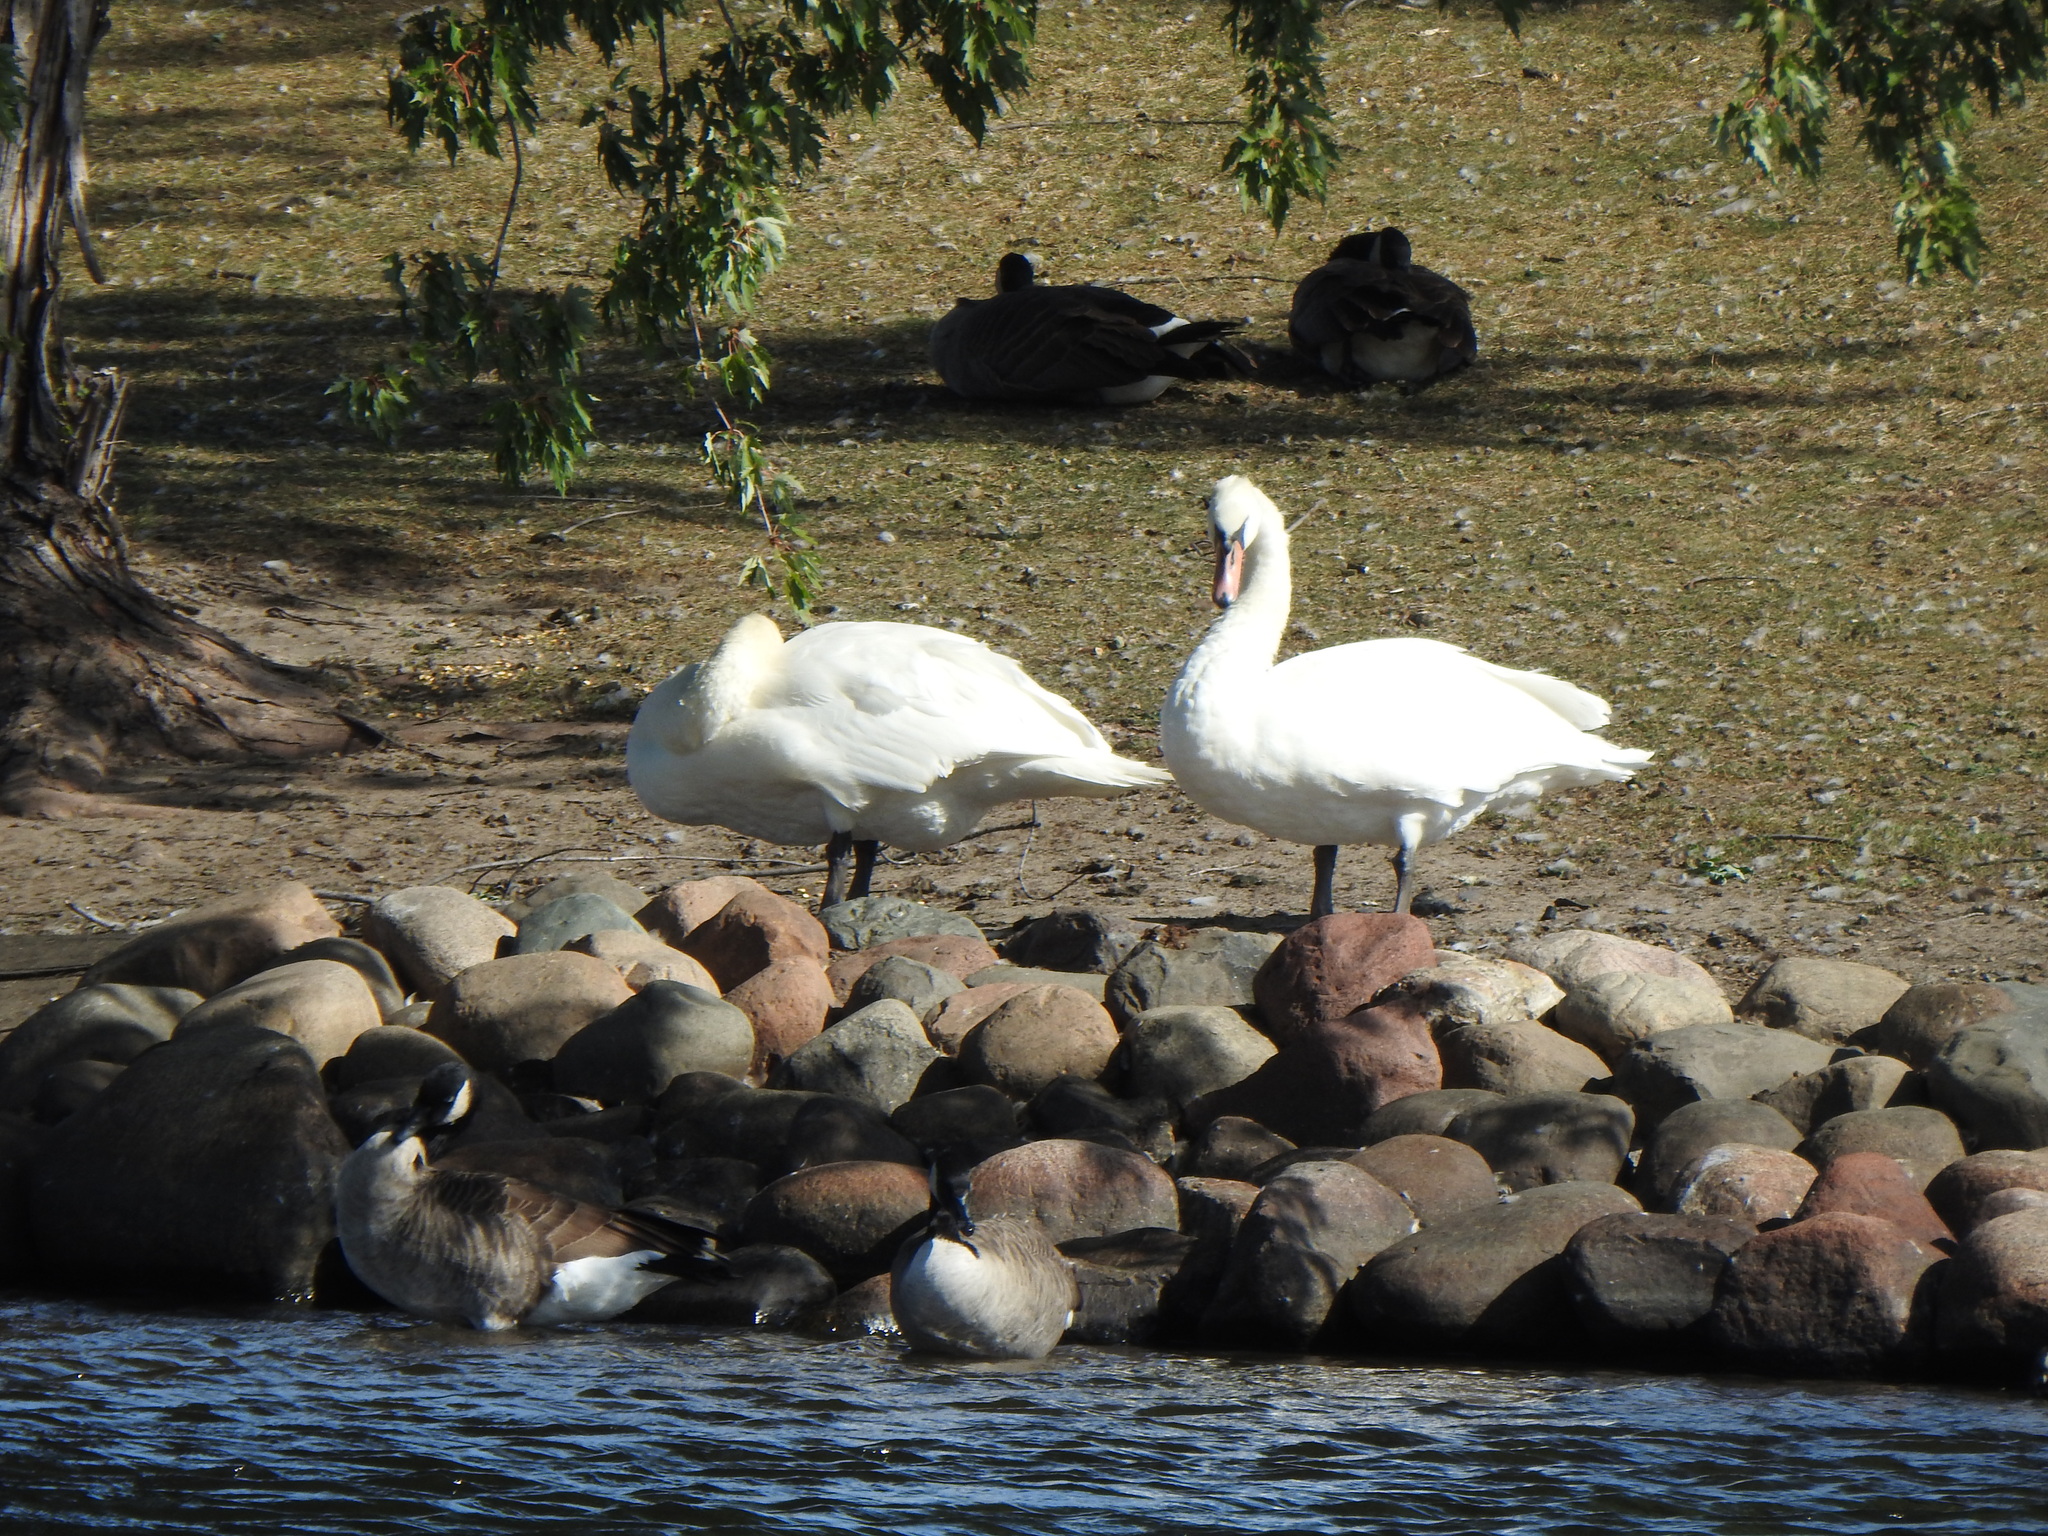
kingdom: Animalia
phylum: Chordata
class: Aves
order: Anseriformes
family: Anatidae
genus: Cygnus
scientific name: Cygnus olor
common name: Mute swan
